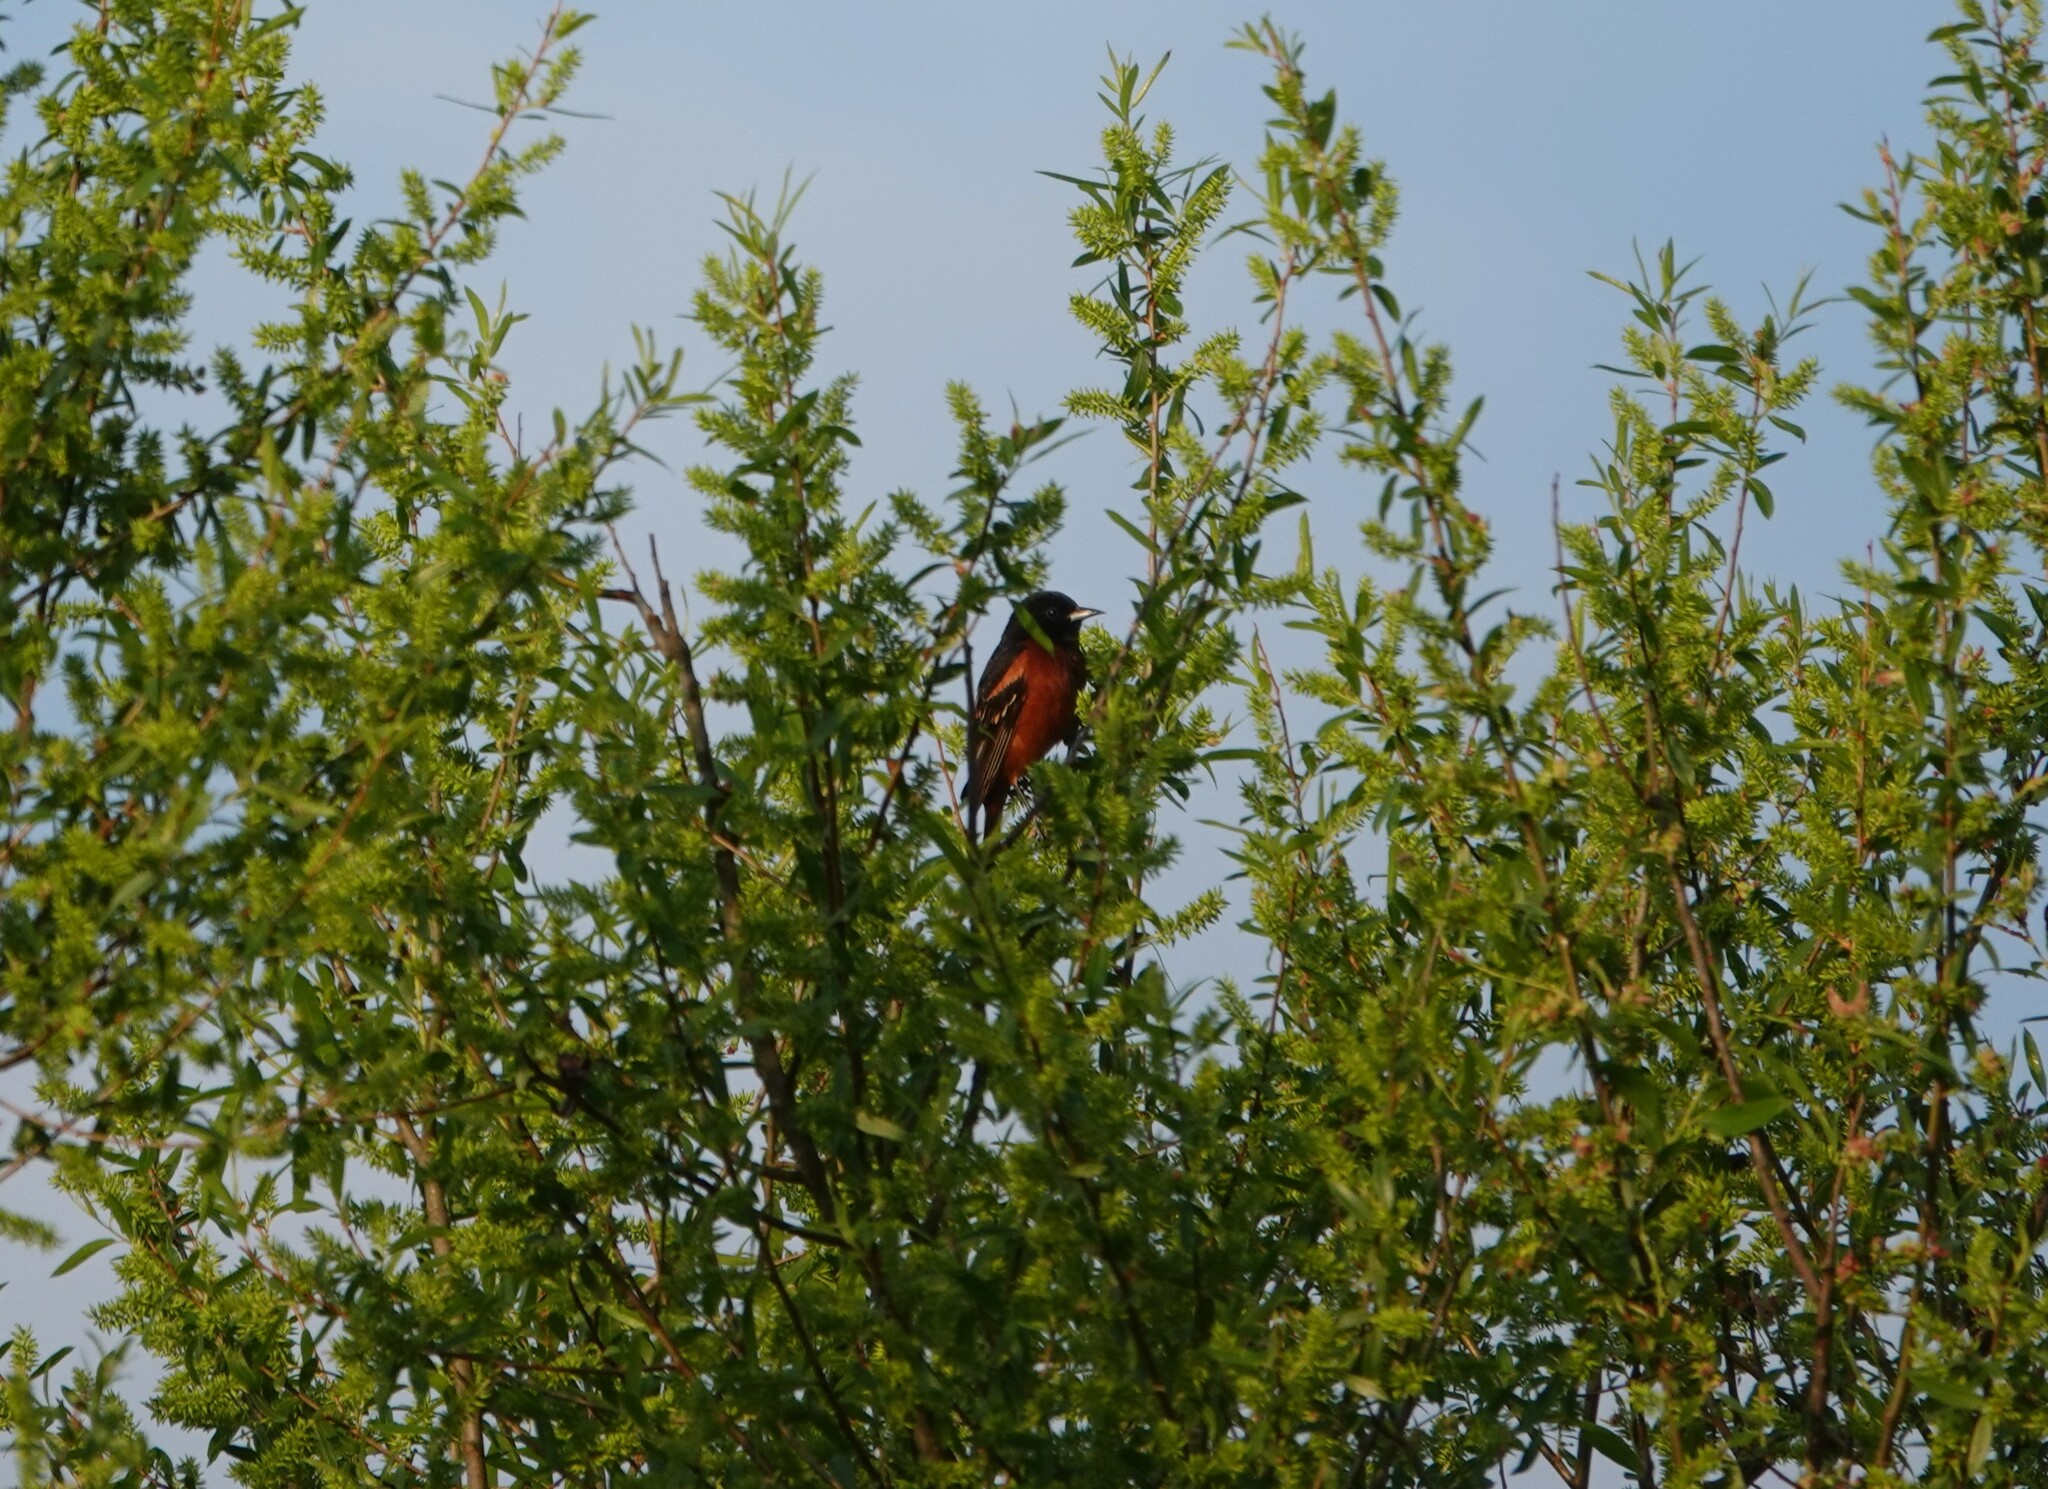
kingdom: Animalia
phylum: Chordata
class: Aves
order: Passeriformes
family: Icteridae
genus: Icterus
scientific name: Icterus spurius
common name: Orchard oriole
